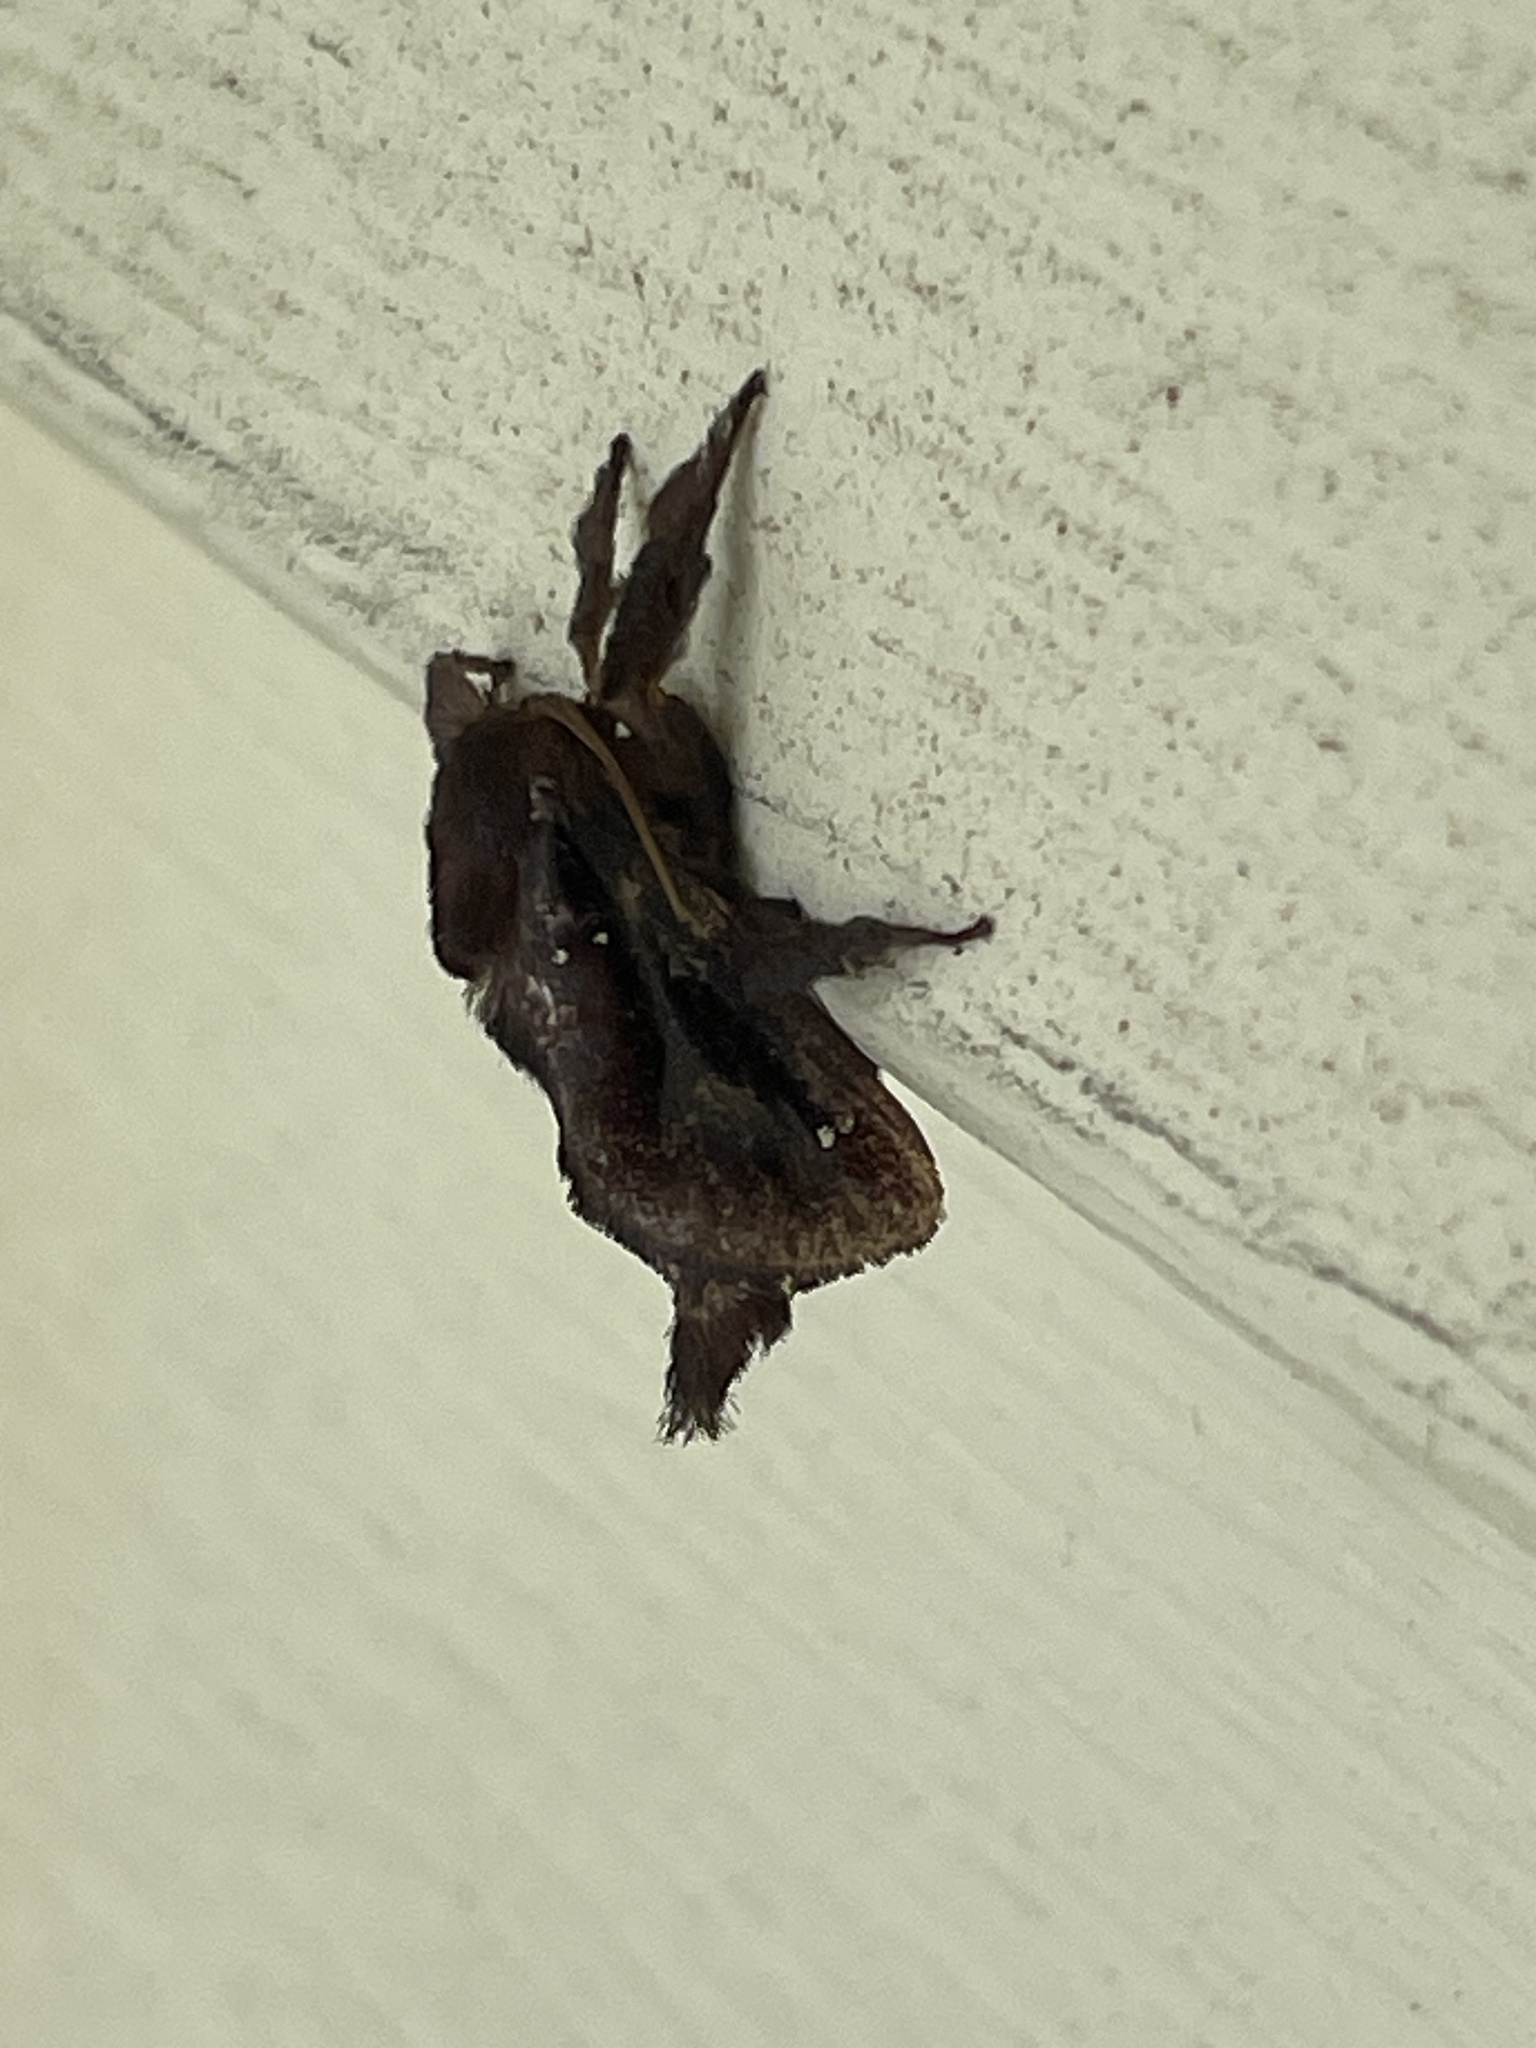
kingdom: Animalia
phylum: Arthropoda
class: Insecta
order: Lepidoptera
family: Limacodidae
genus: Acharia
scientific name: Acharia stimulea
